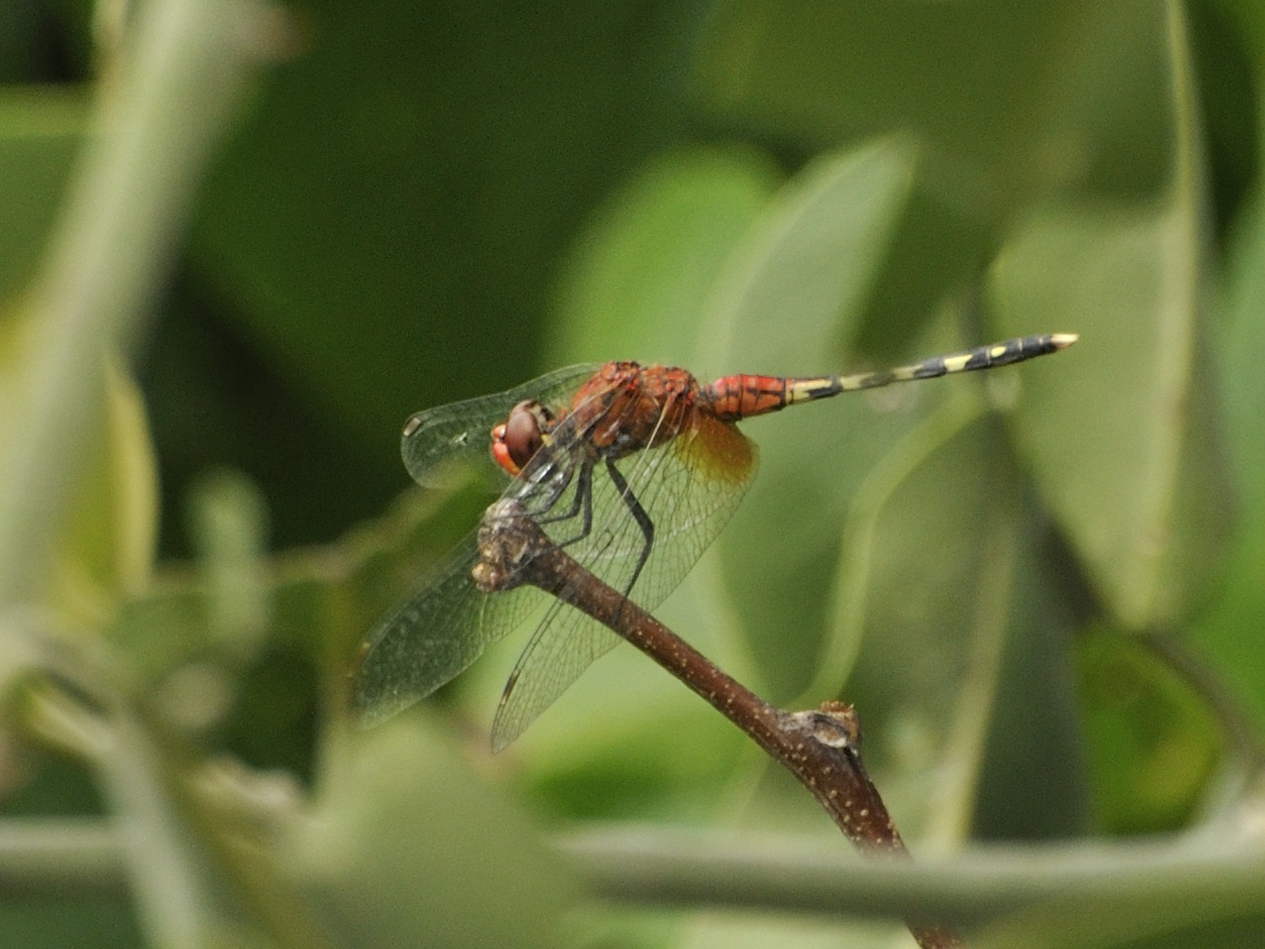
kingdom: Animalia
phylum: Arthropoda
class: Insecta
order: Odonata
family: Libellulidae
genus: Diplacodes
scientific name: Diplacodes luminans
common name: Barbet percher
